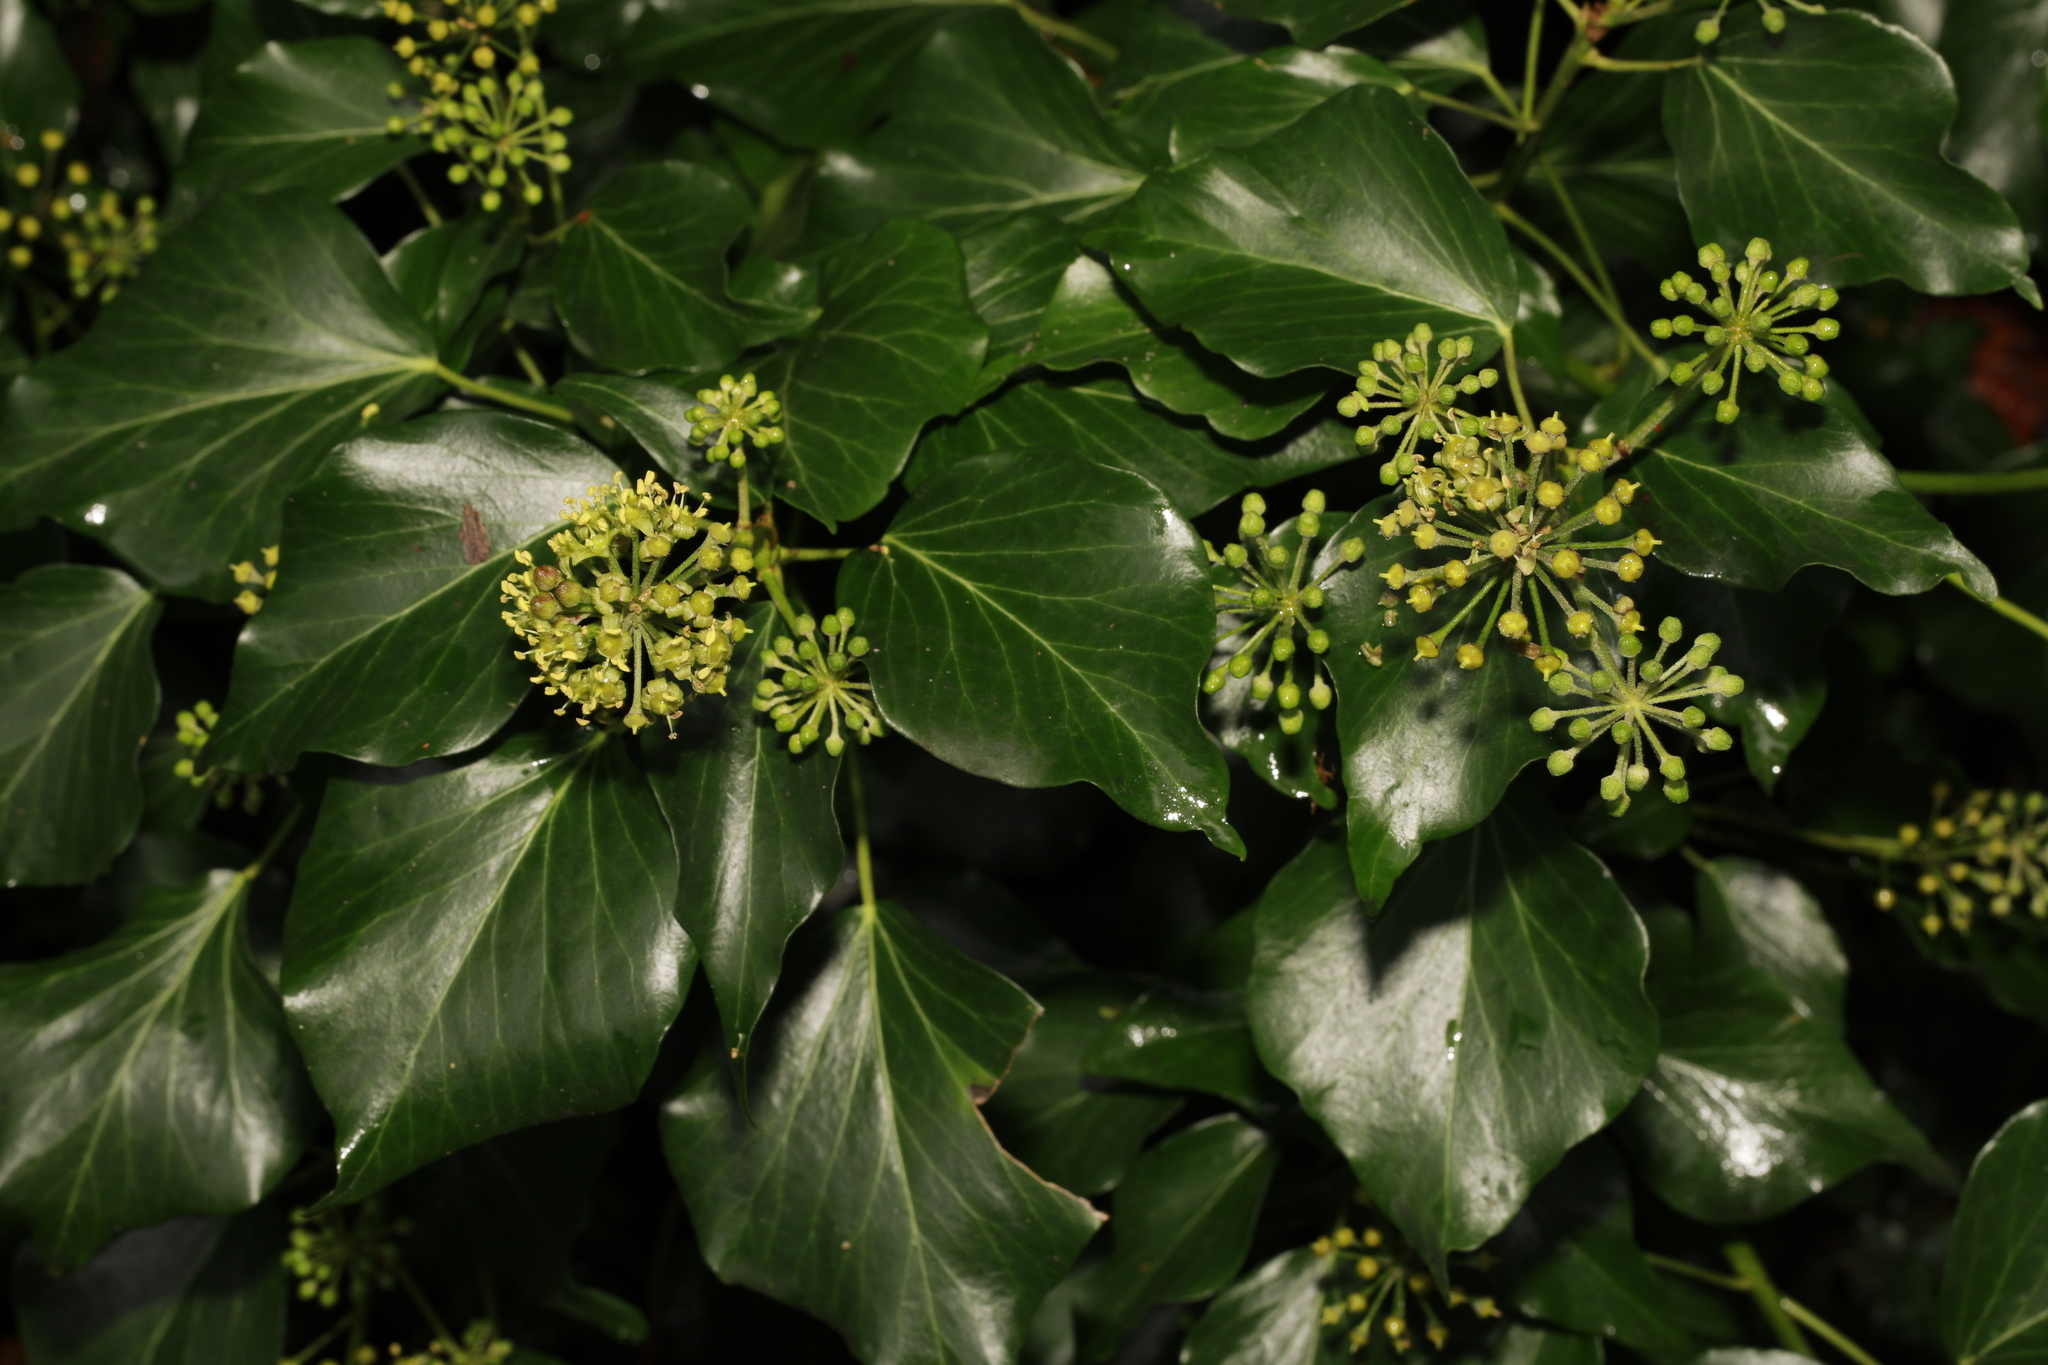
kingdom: Plantae
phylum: Tracheophyta
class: Magnoliopsida
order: Apiales
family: Araliaceae
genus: Hedera
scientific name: Hedera helix
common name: Ivy
